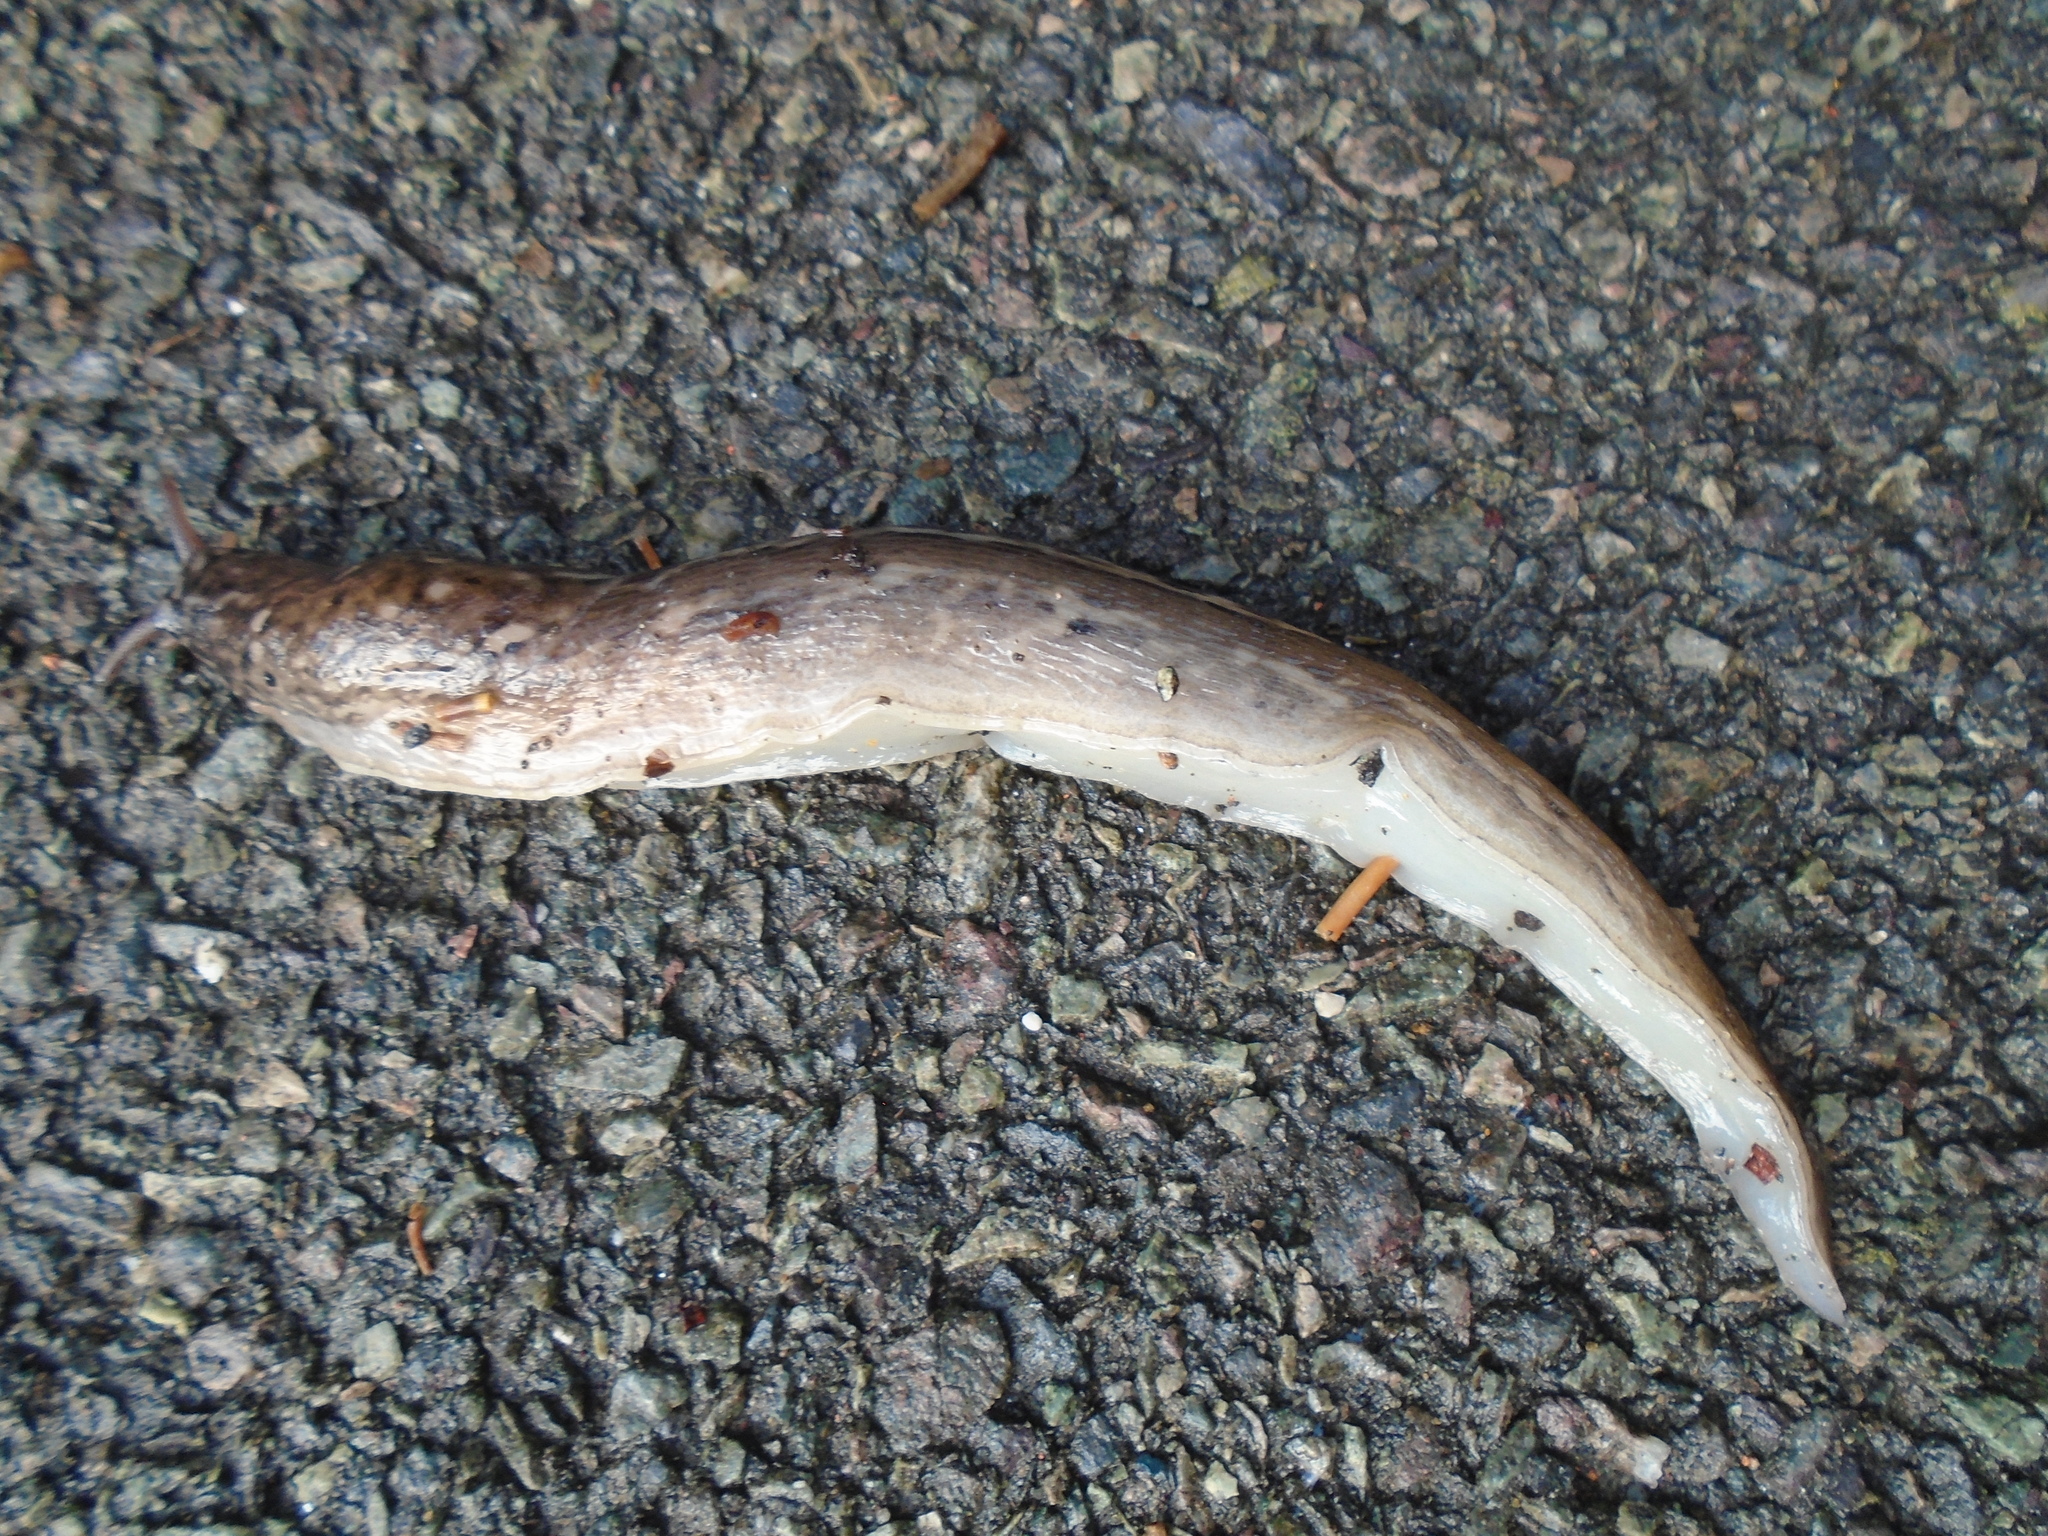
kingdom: Animalia
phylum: Mollusca
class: Gastropoda
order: Stylommatophora
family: Limacidae
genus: Limax
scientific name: Limax maximus
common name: Great grey slug
